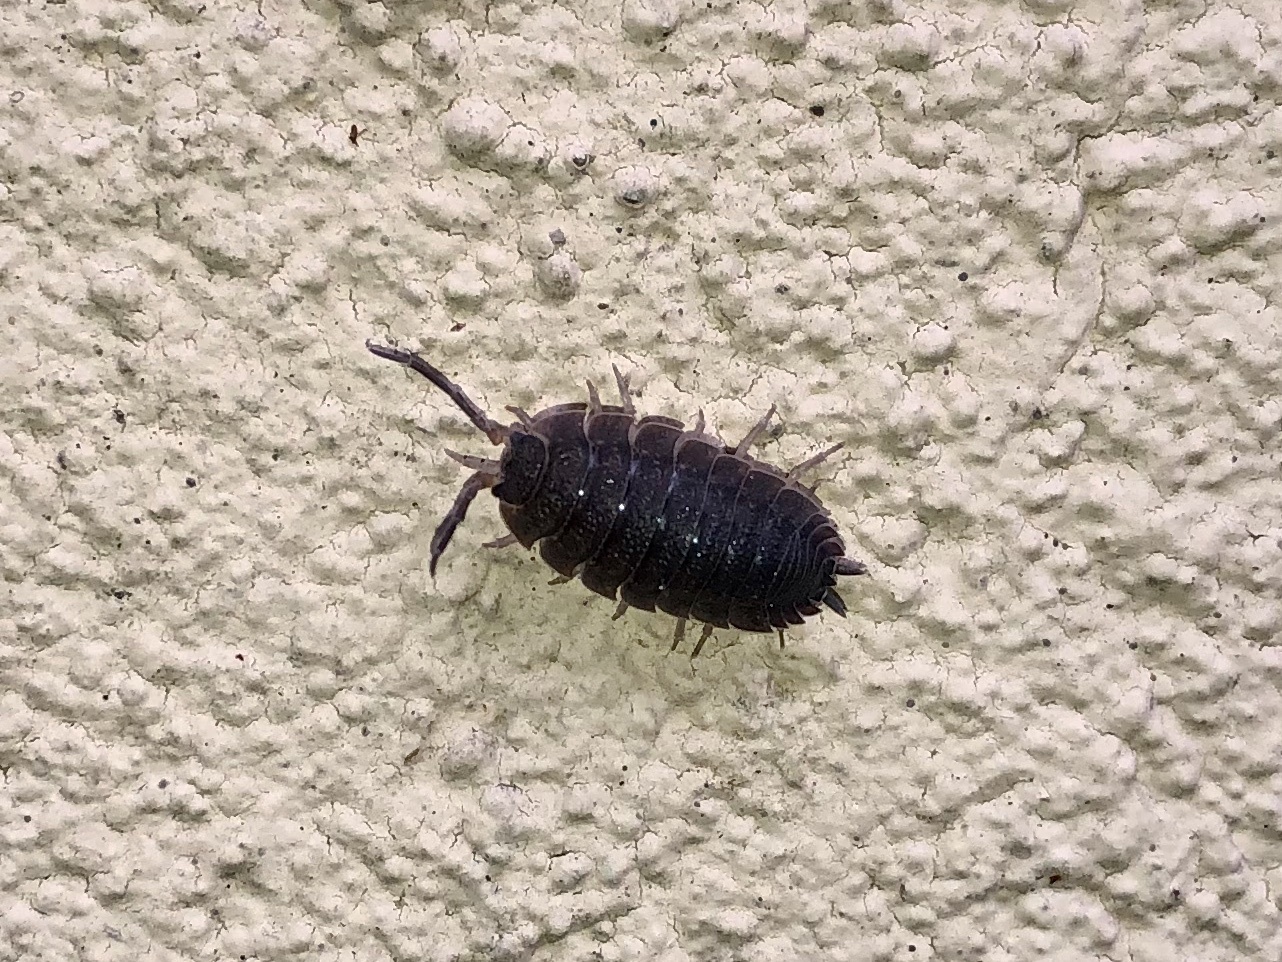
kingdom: Animalia
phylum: Arthropoda
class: Malacostraca
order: Isopoda
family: Porcellionidae
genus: Porcellio
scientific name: Porcellio scaber
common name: Common rough woodlouse
